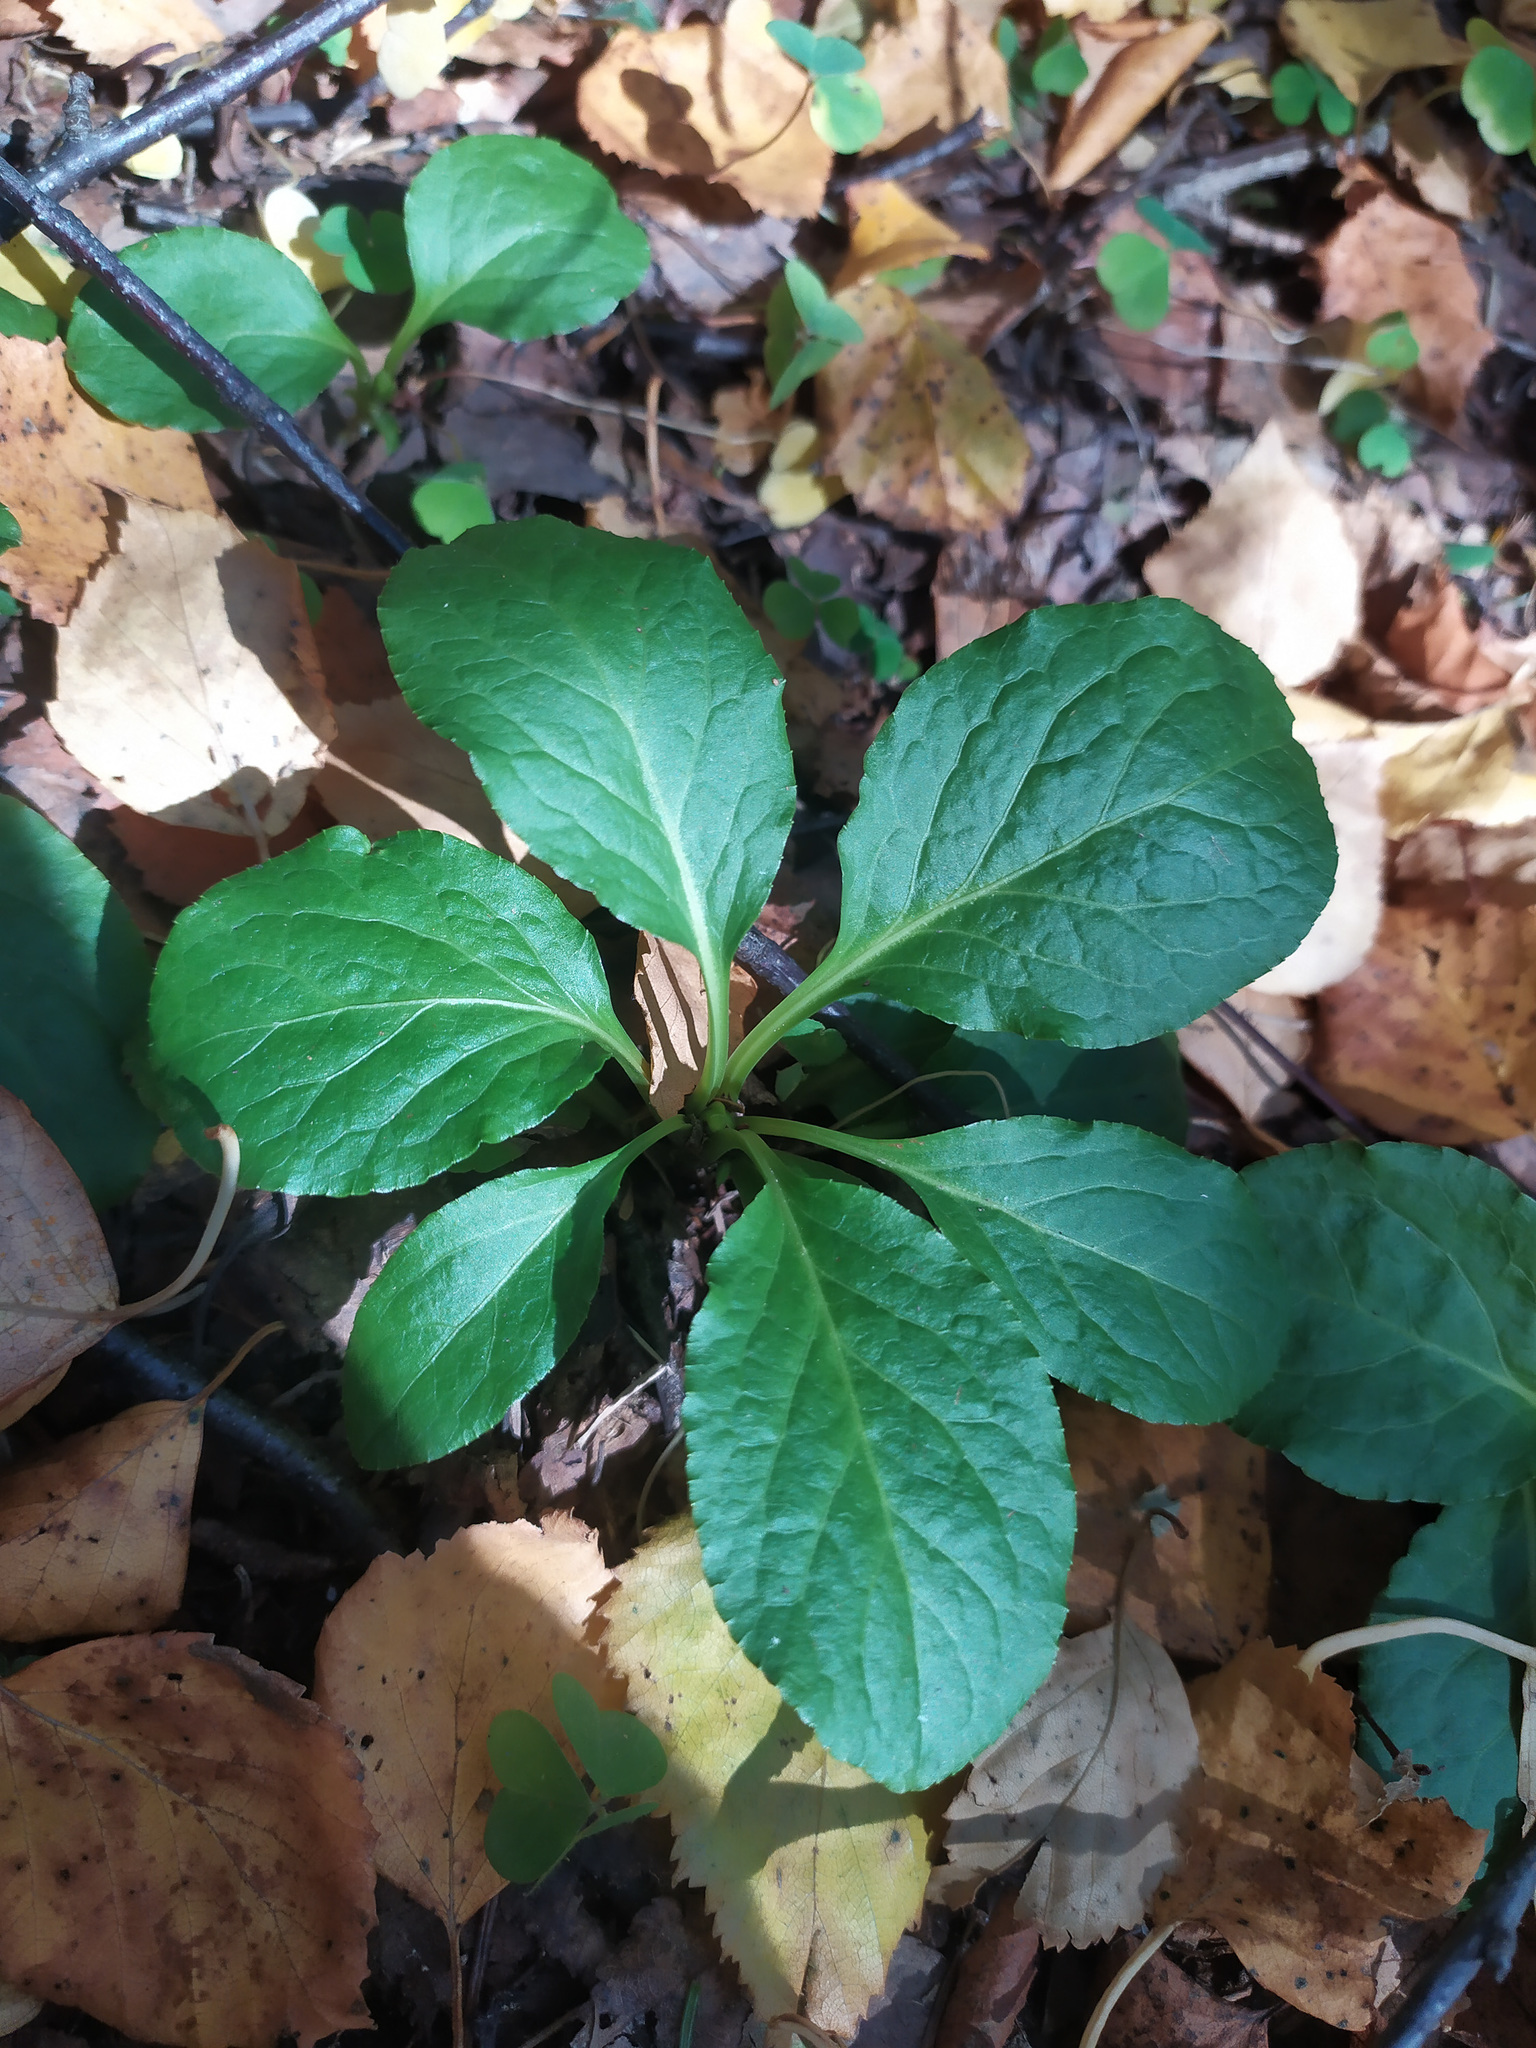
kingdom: Plantae
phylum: Tracheophyta
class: Magnoliopsida
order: Ericales
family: Ericaceae
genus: Pyrola
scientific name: Pyrola
